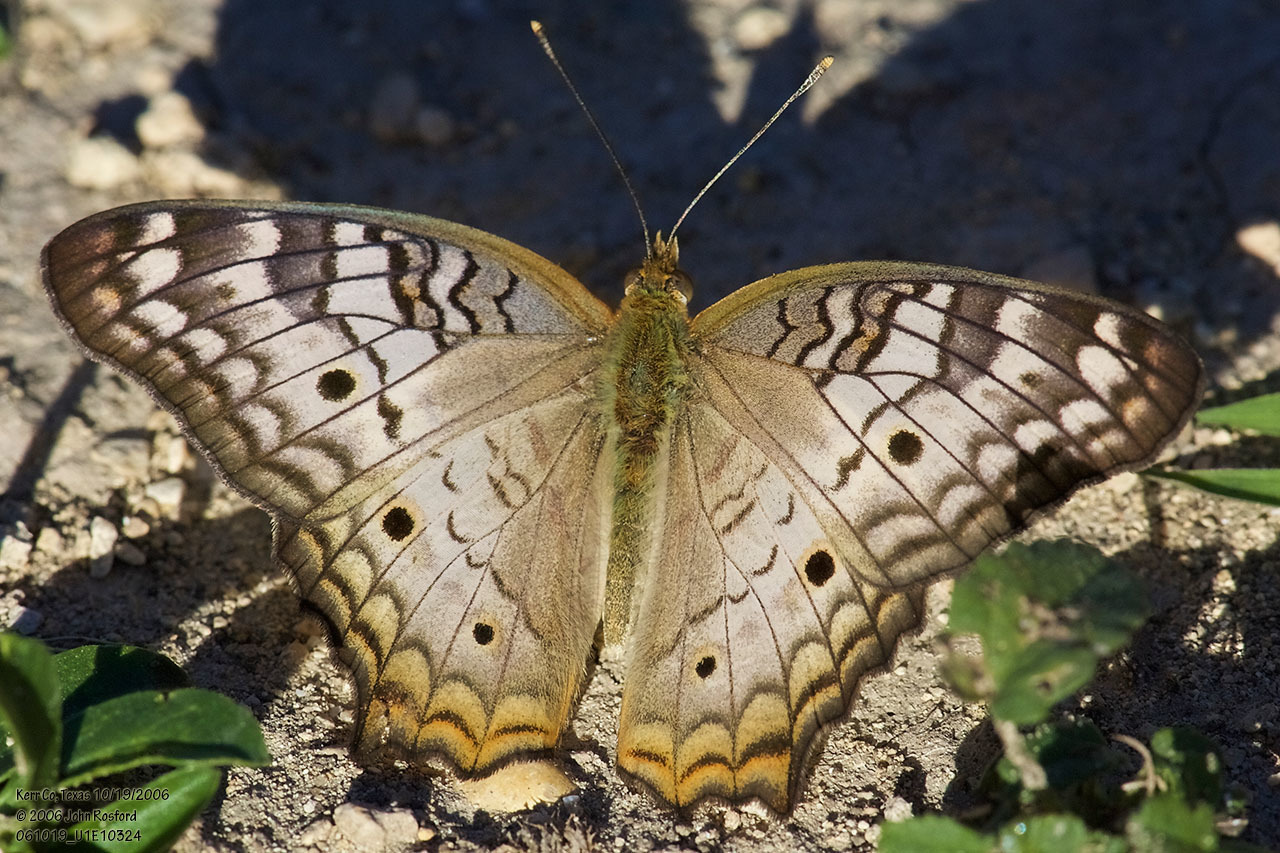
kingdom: Animalia
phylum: Arthropoda
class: Insecta
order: Lepidoptera
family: Nymphalidae
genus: Anartia
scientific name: Anartia jatrophae
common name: White peacock
